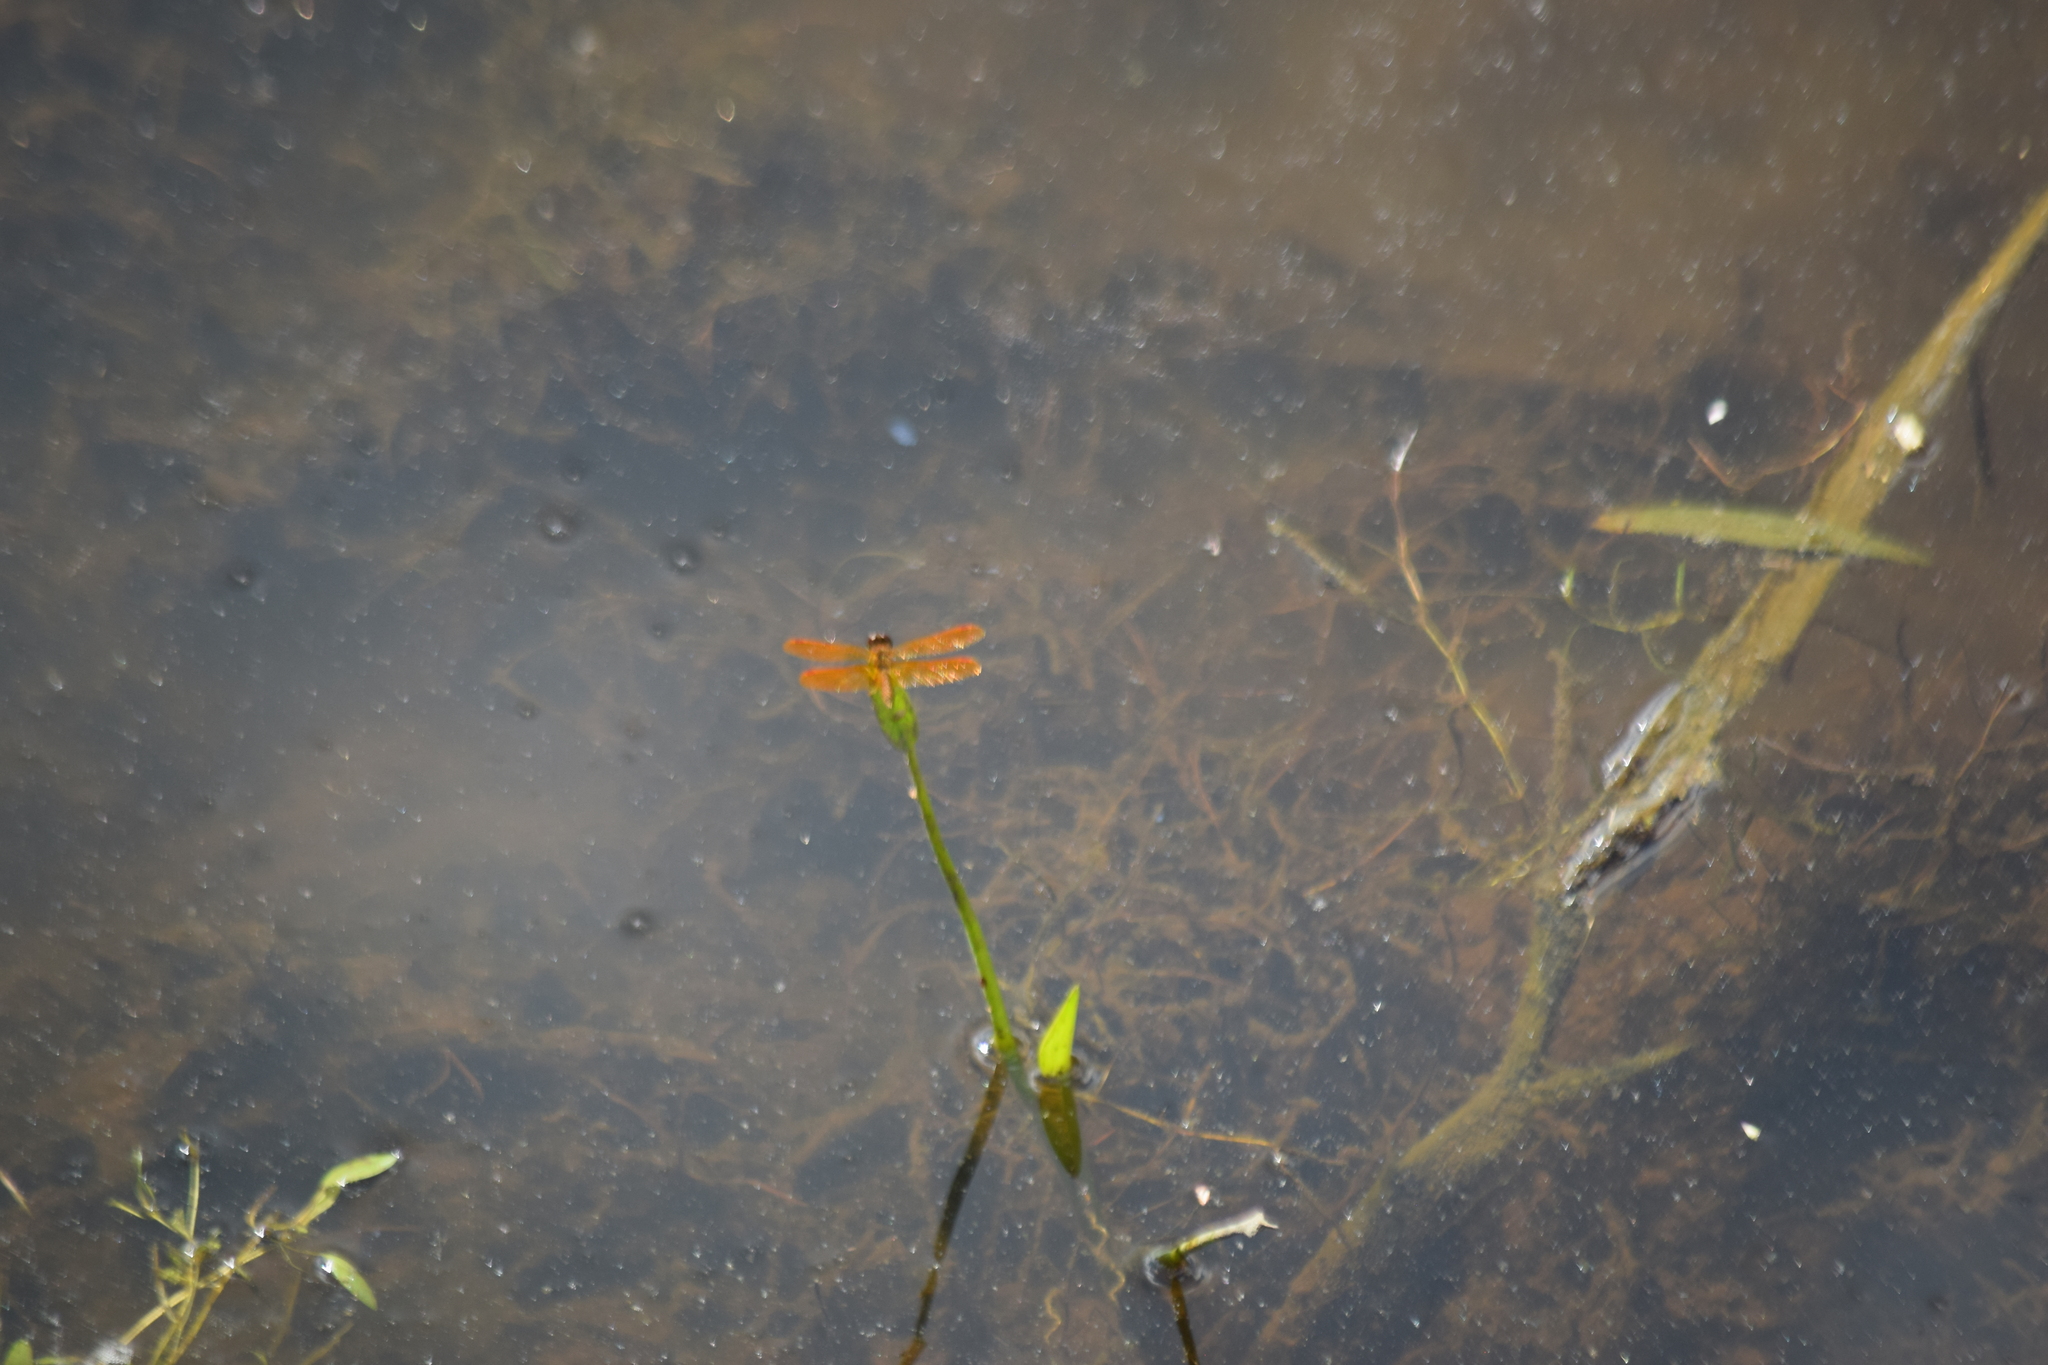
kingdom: Animalia
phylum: Arthropoda
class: Insecta
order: Odonata
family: Libellulidae
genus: Perithemis
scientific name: Perithemis tenera
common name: Eastern amberwing
